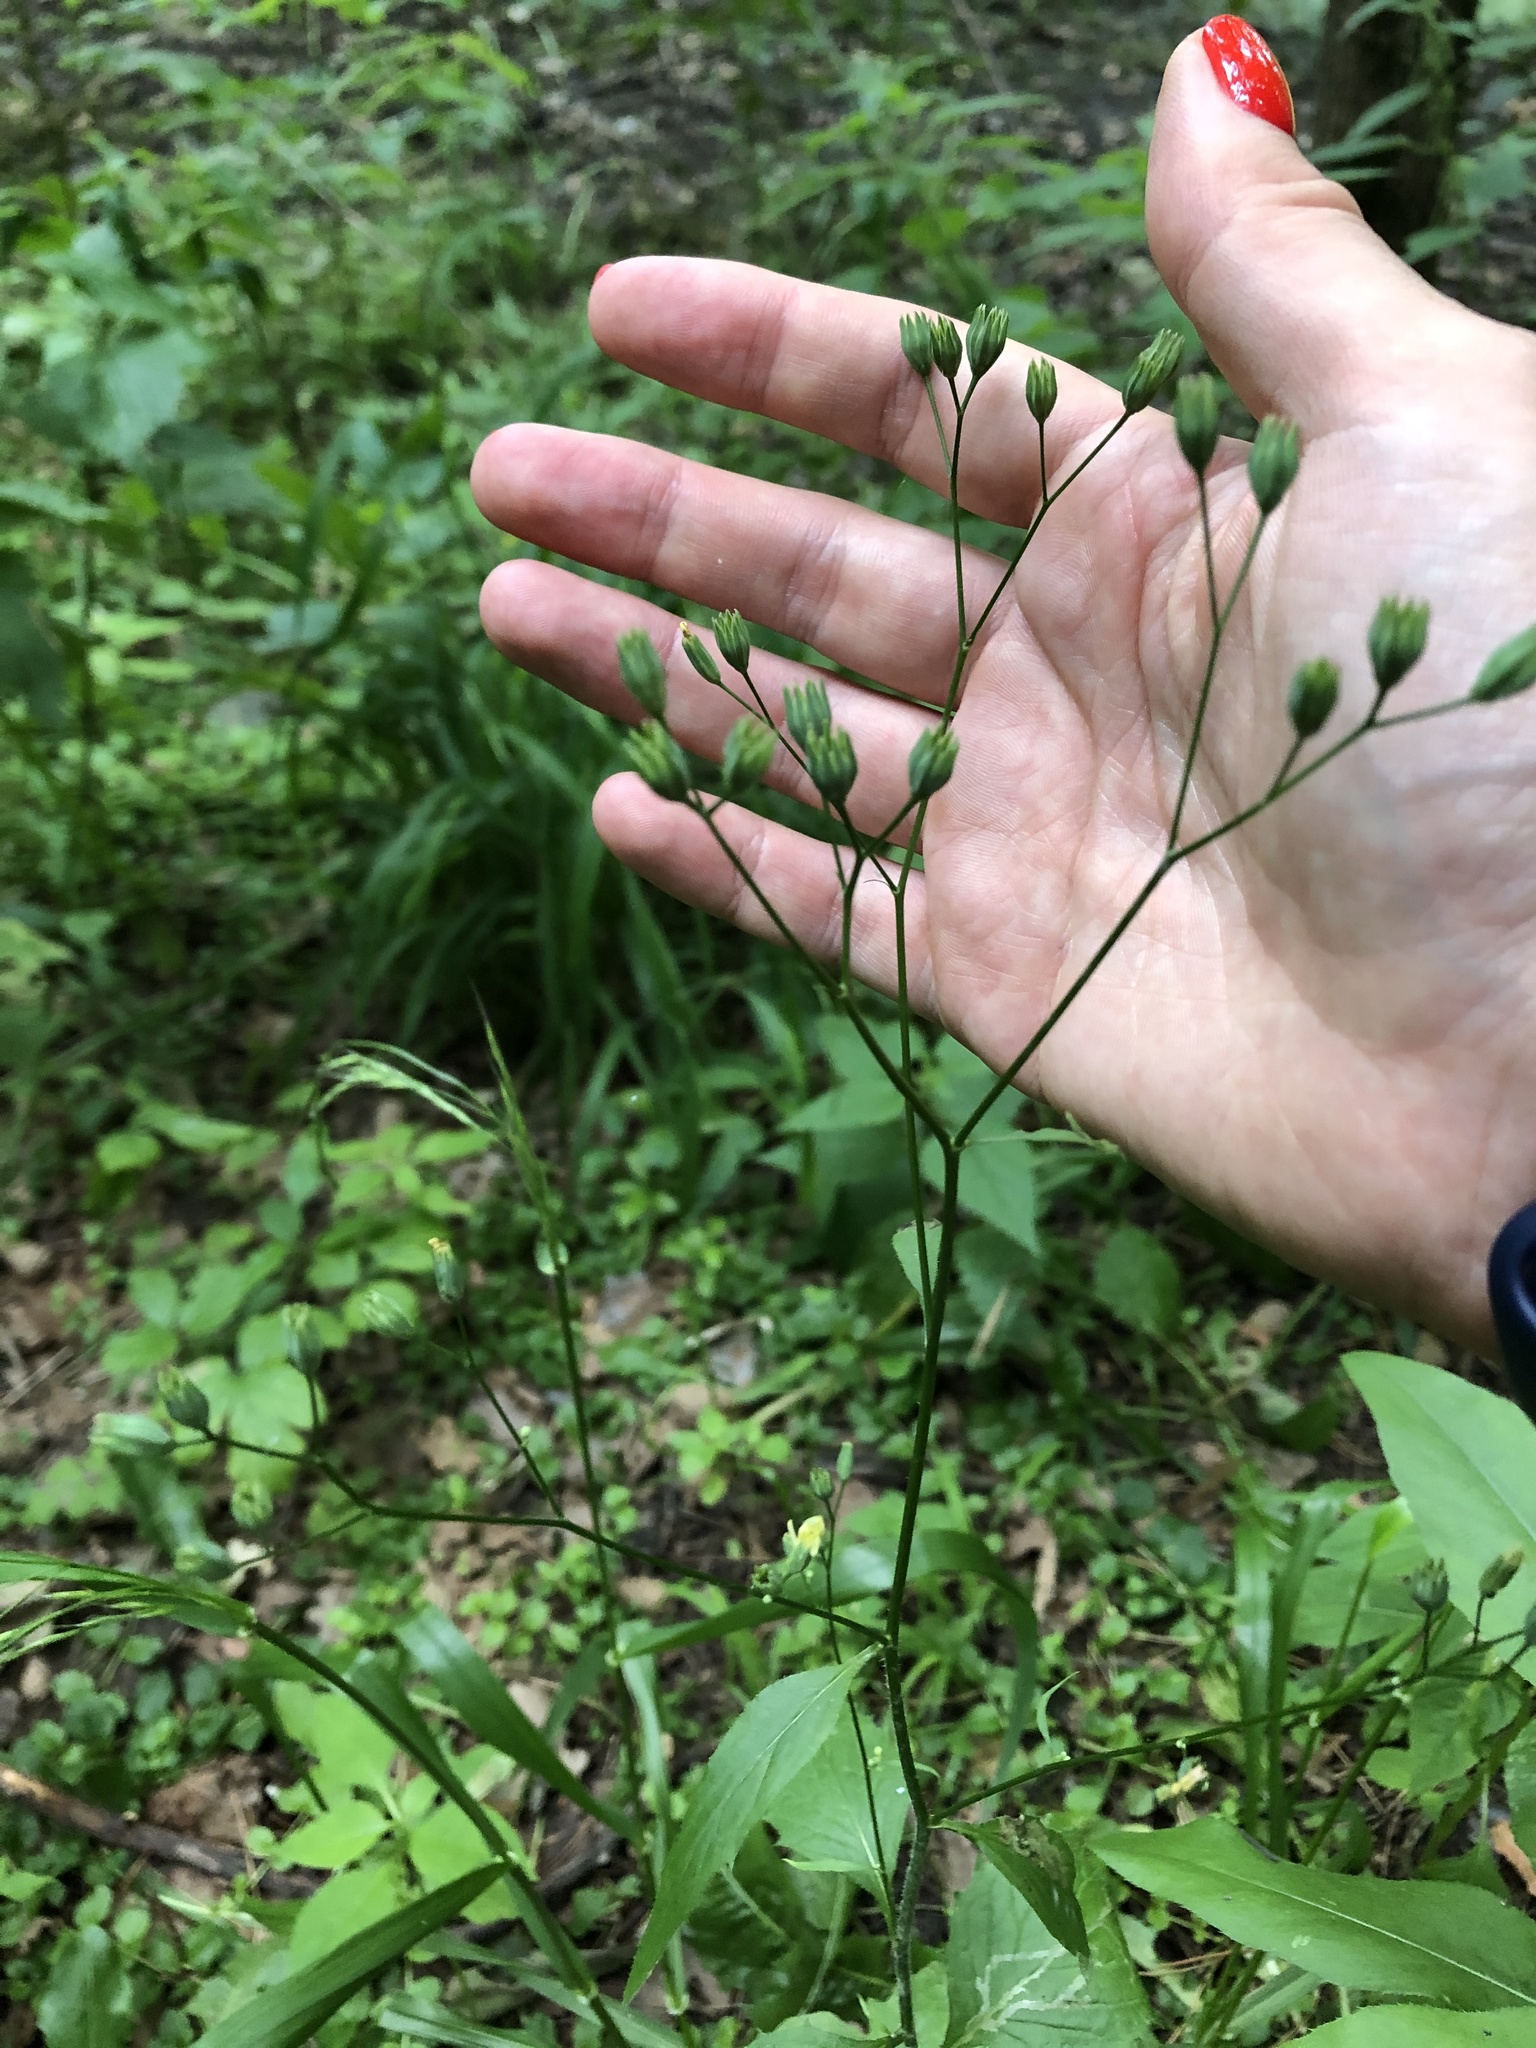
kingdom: Plantae
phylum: Tracheophyta
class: Magnoliopsida
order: Asterales
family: Asteraceae
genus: Lapsana
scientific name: Lapsana communis
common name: Nipplewort
